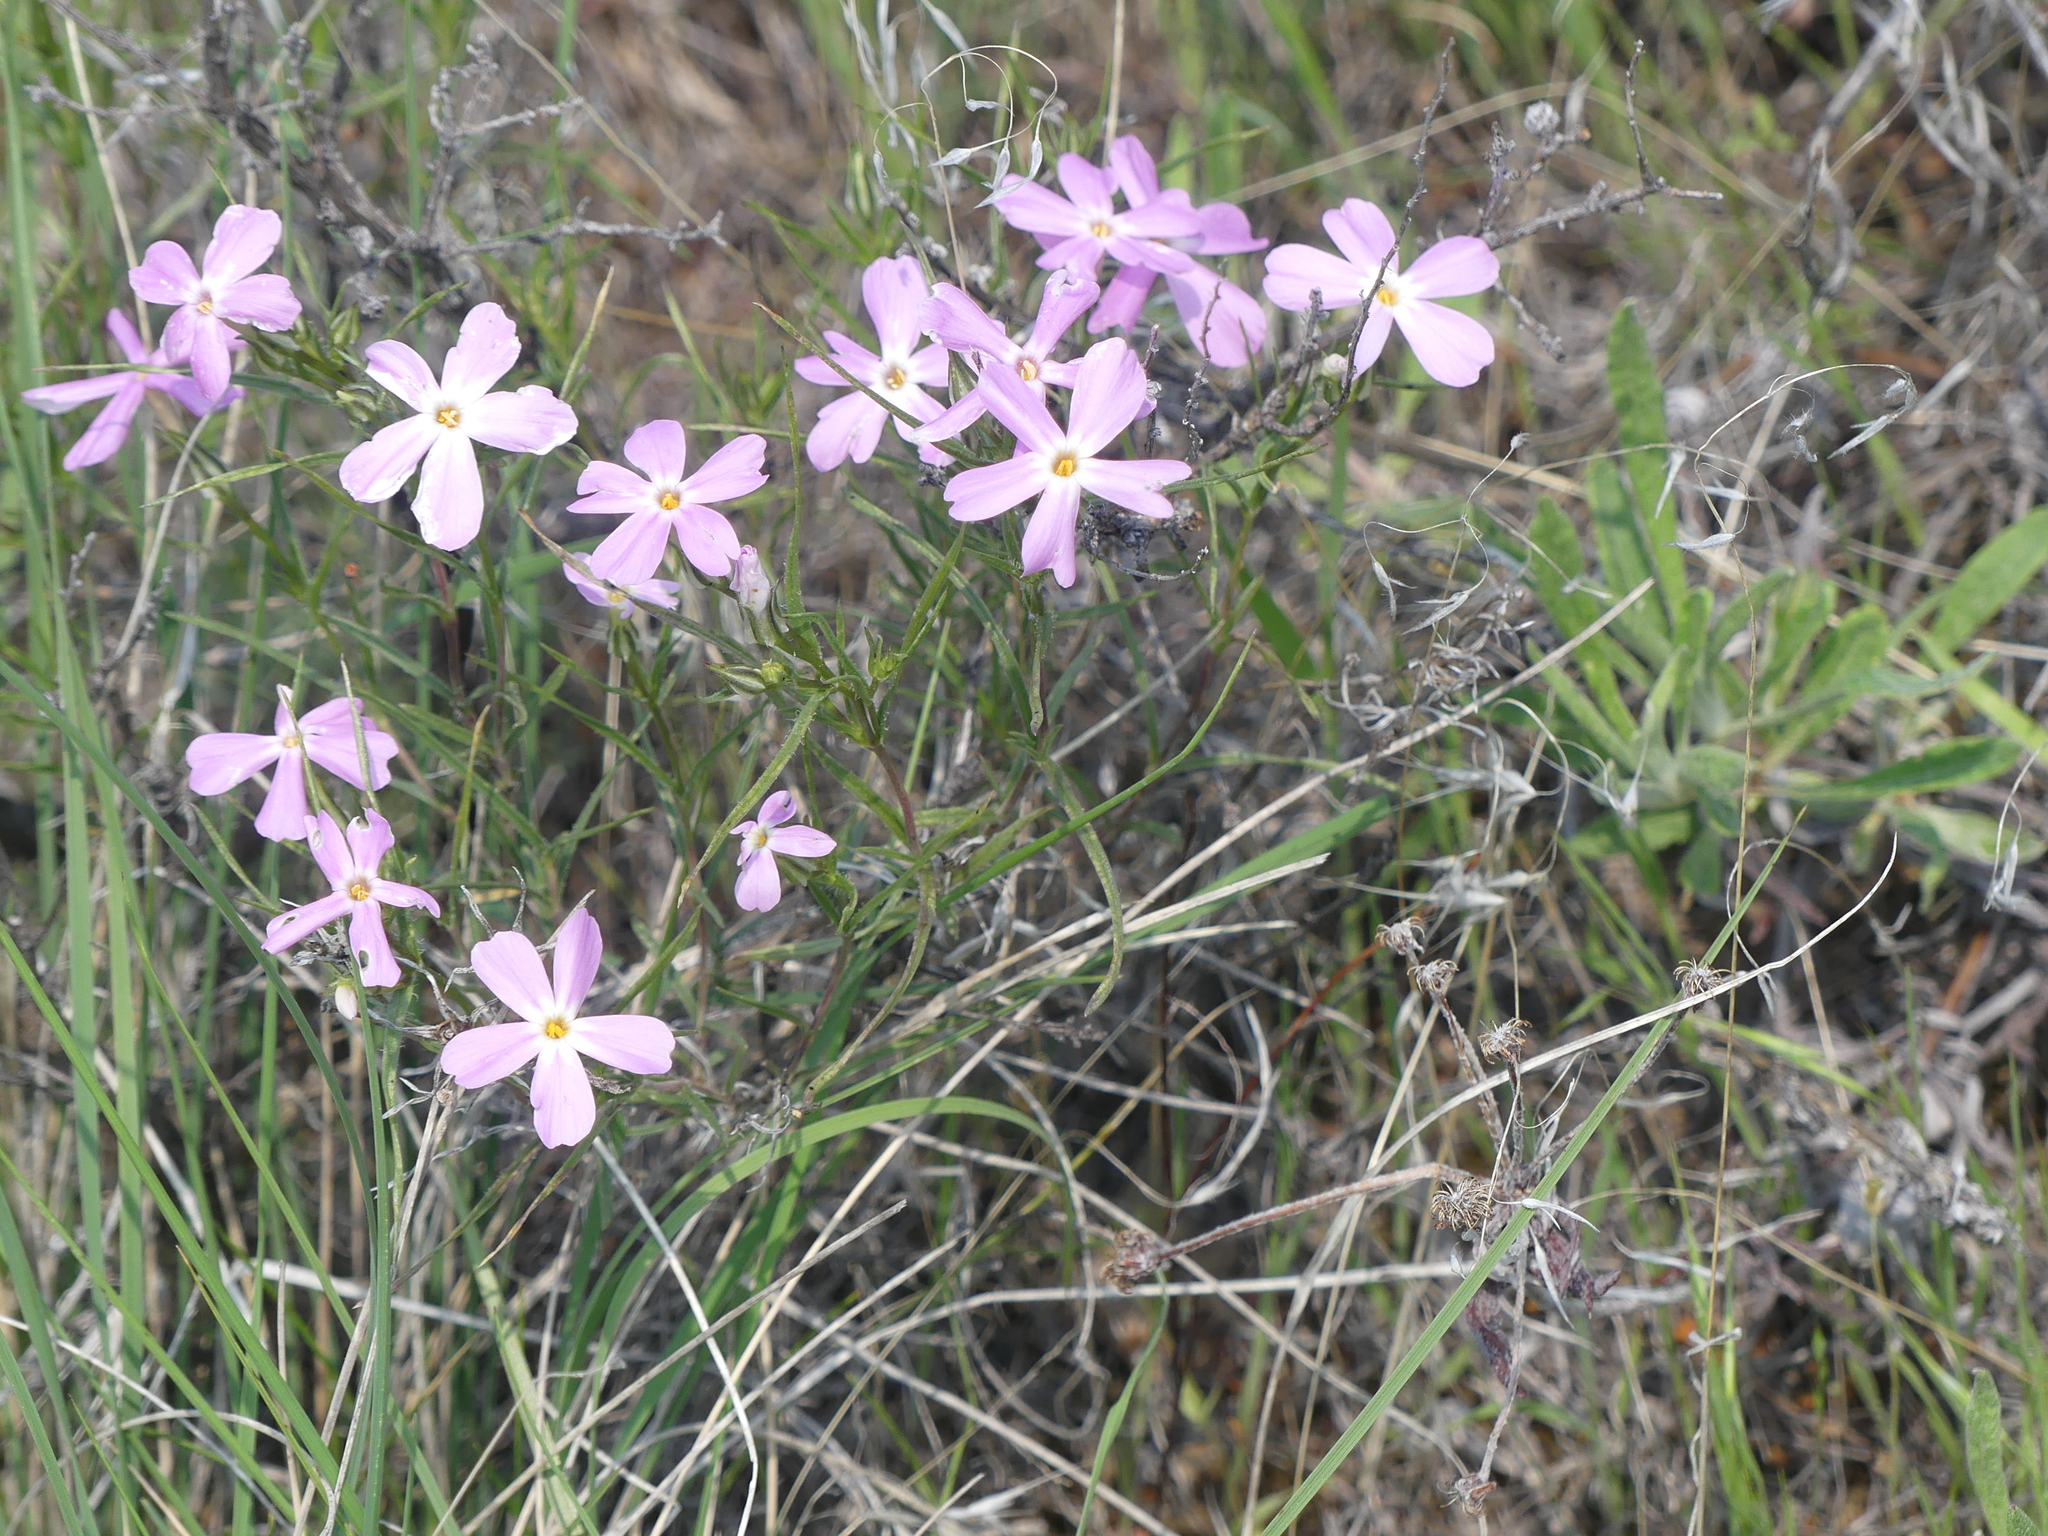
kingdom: Plantae
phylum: Tracheophyta
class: Magnoliopsida
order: Ericales
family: Polemoniaceae
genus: Phlox
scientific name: Phlox longifolia
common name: Longleaf phlox
